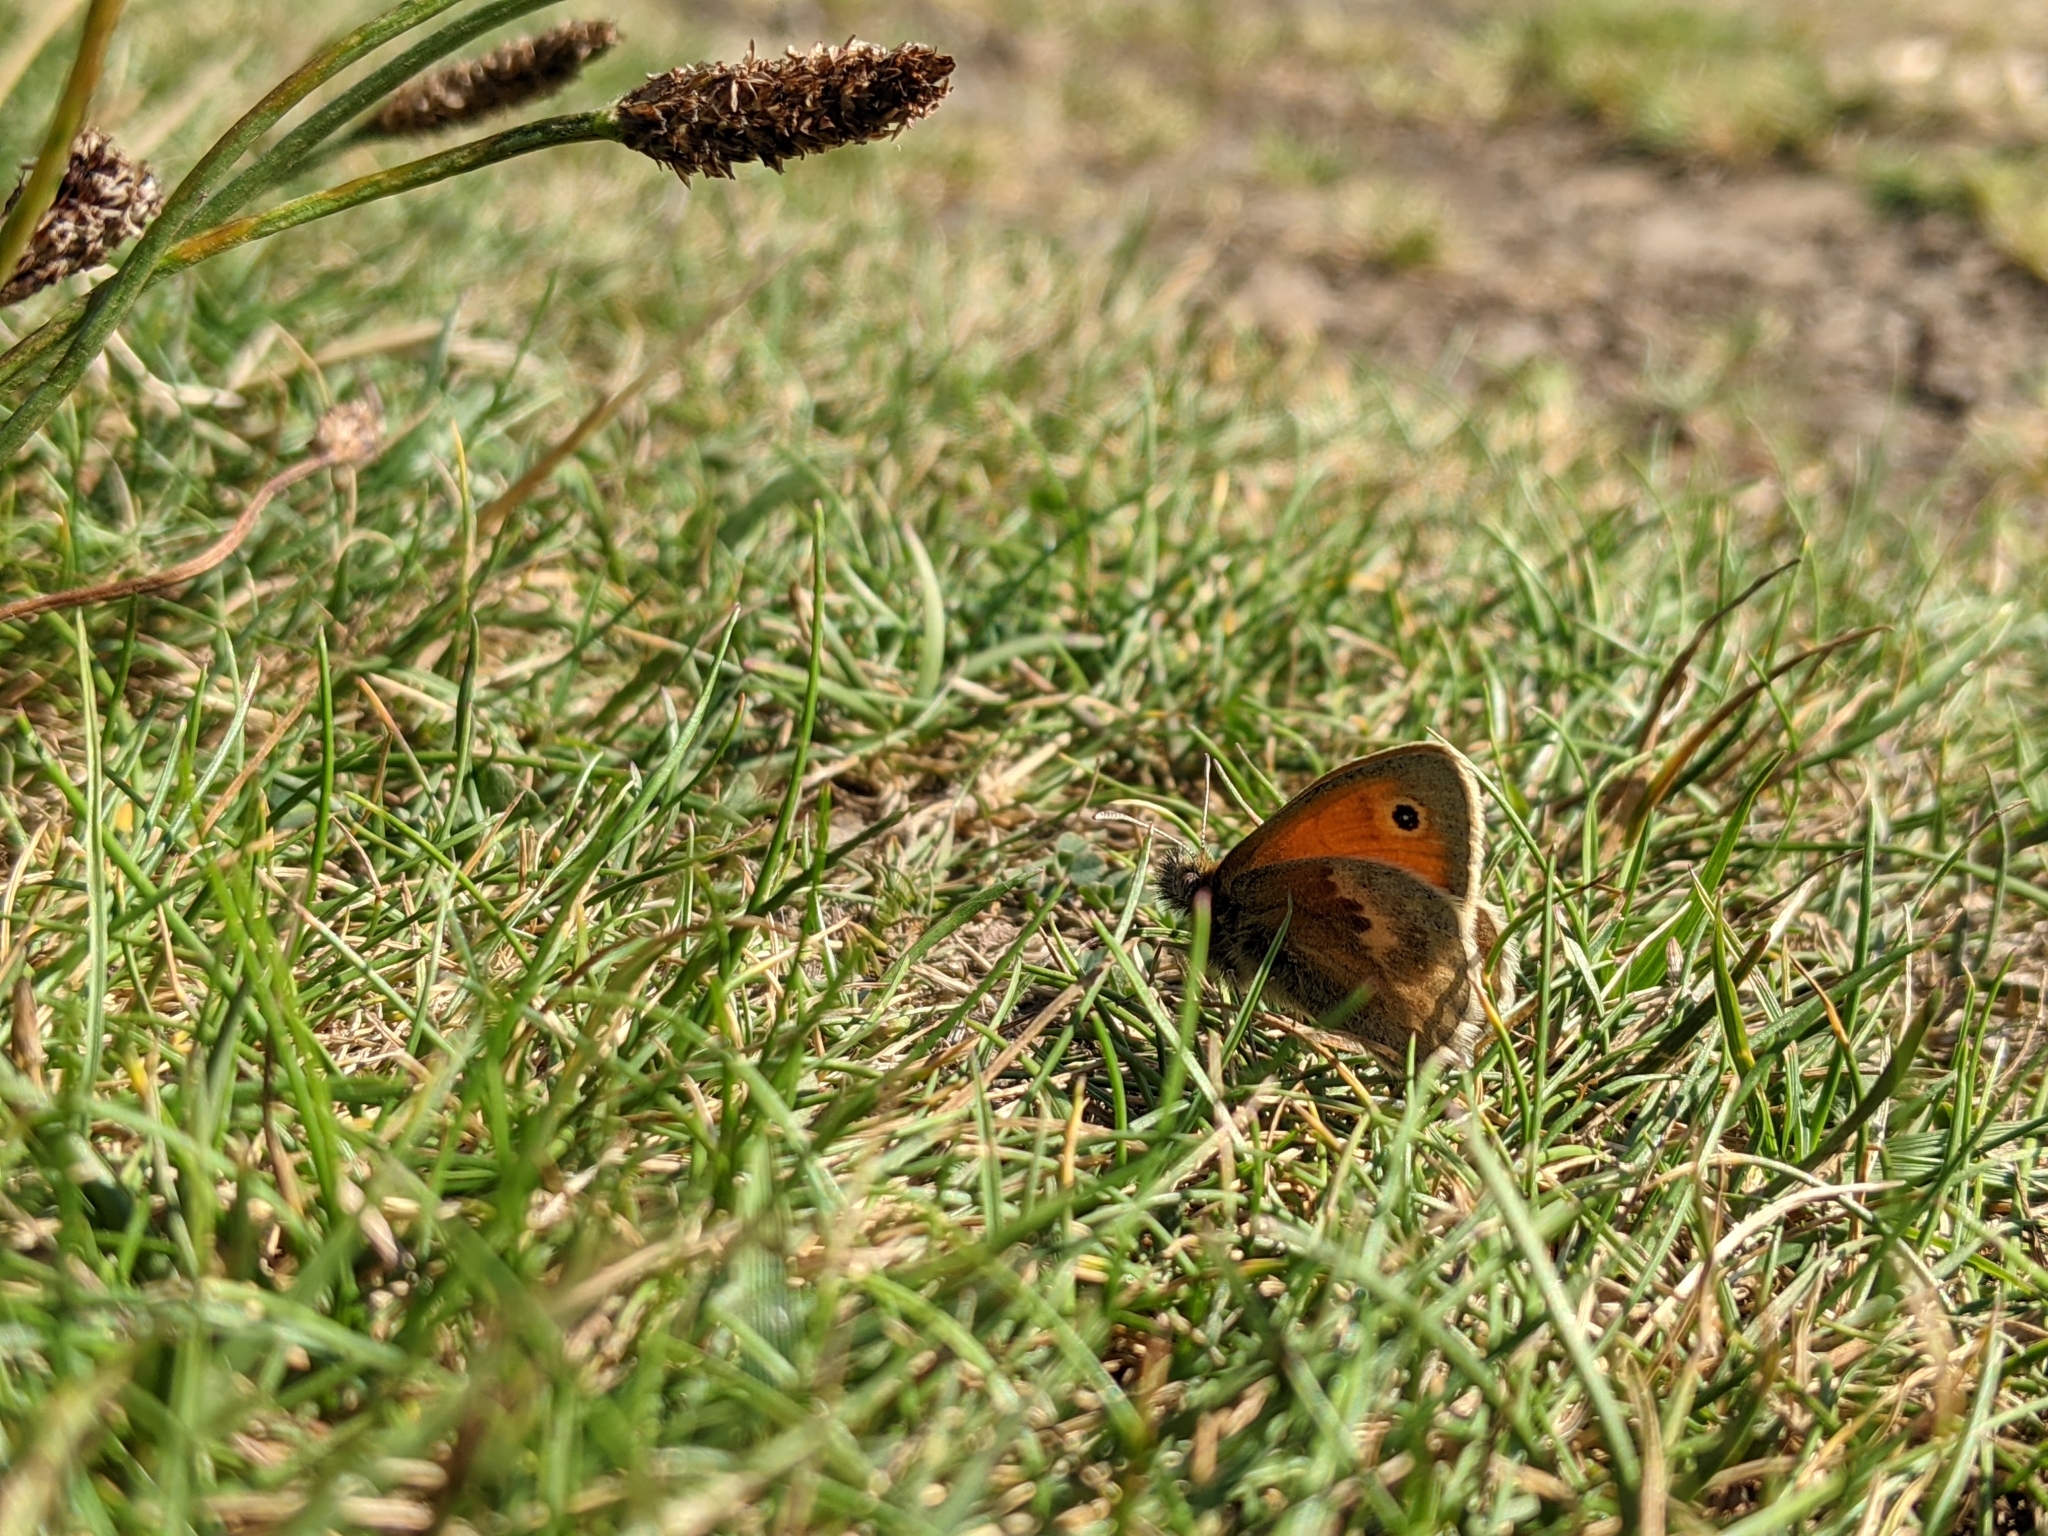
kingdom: Animalia
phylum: Arthropoda
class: Insecta
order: Lepidoptera
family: Nymphalidae
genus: Coenonympha
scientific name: Coenonympha pamphilus
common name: Small heath
